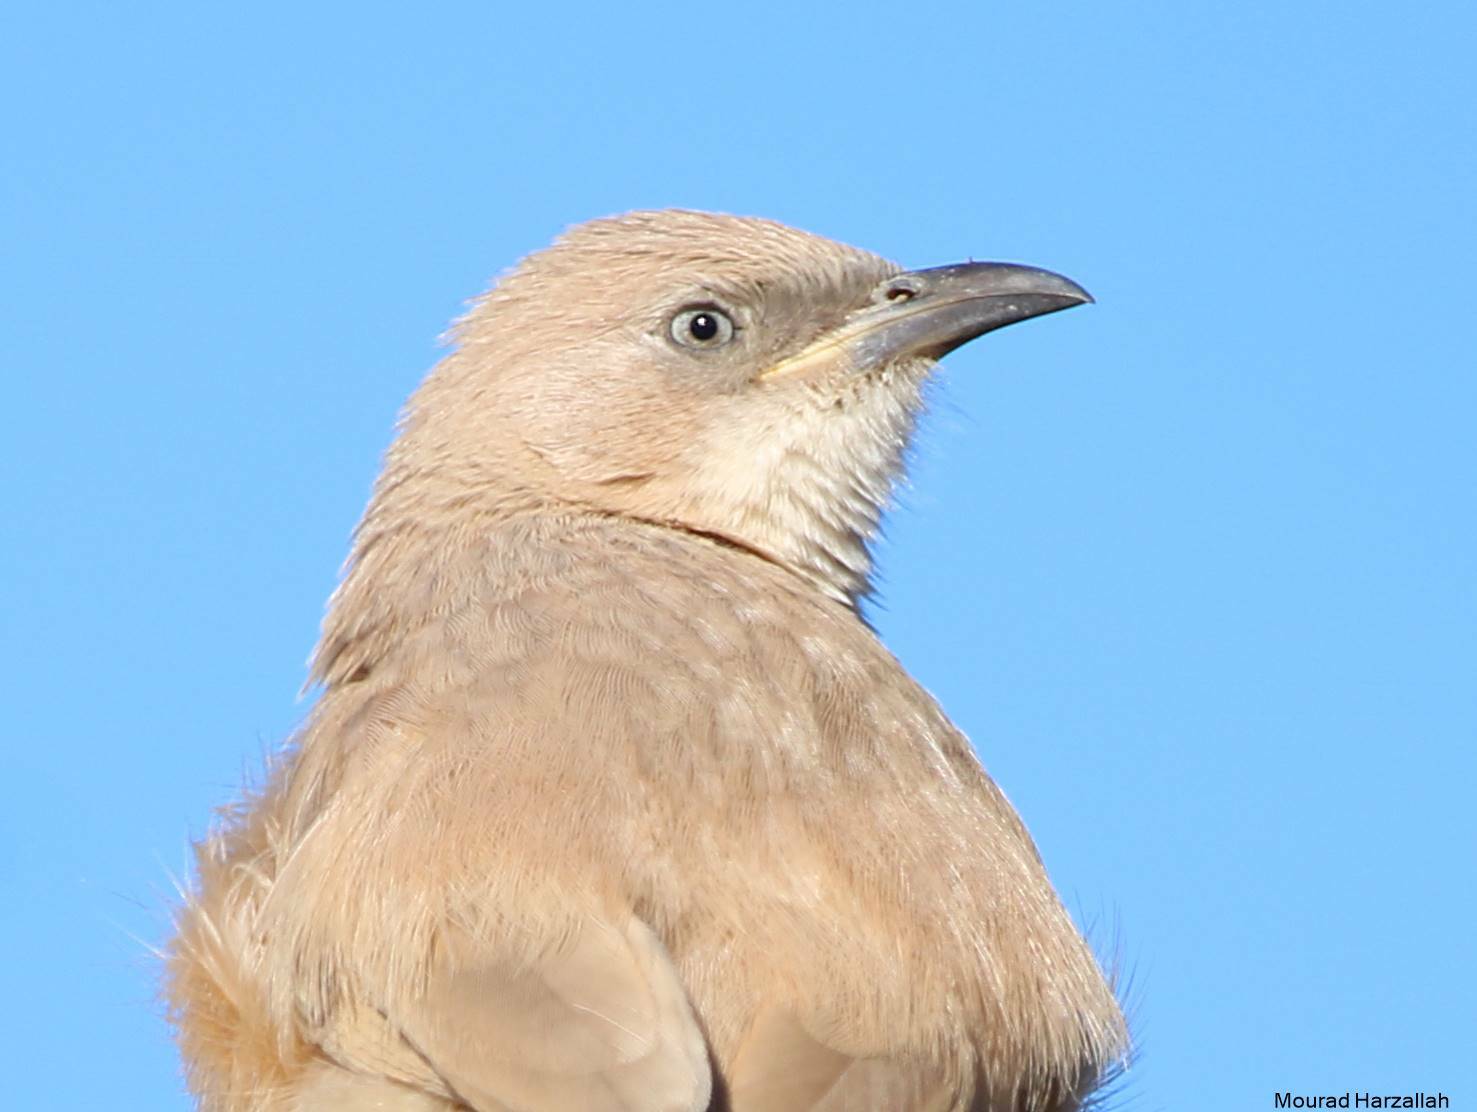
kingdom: Animalia
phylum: Chordata
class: Aves
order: Passeriformes
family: Leiothrichidae
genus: Turdoides
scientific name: Turdoides fulva
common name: Fulvous babbler
